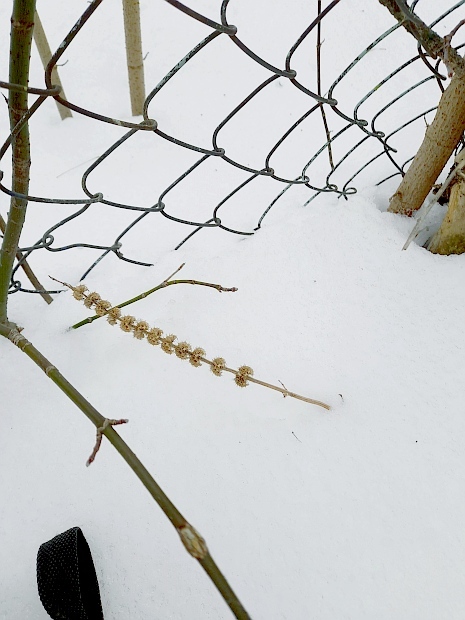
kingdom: Plantae
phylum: Tracheophyta
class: Magnoliopsida
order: Lamiales
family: Lamiaceae
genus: Leonurus
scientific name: Leonurus quinquelobatus
